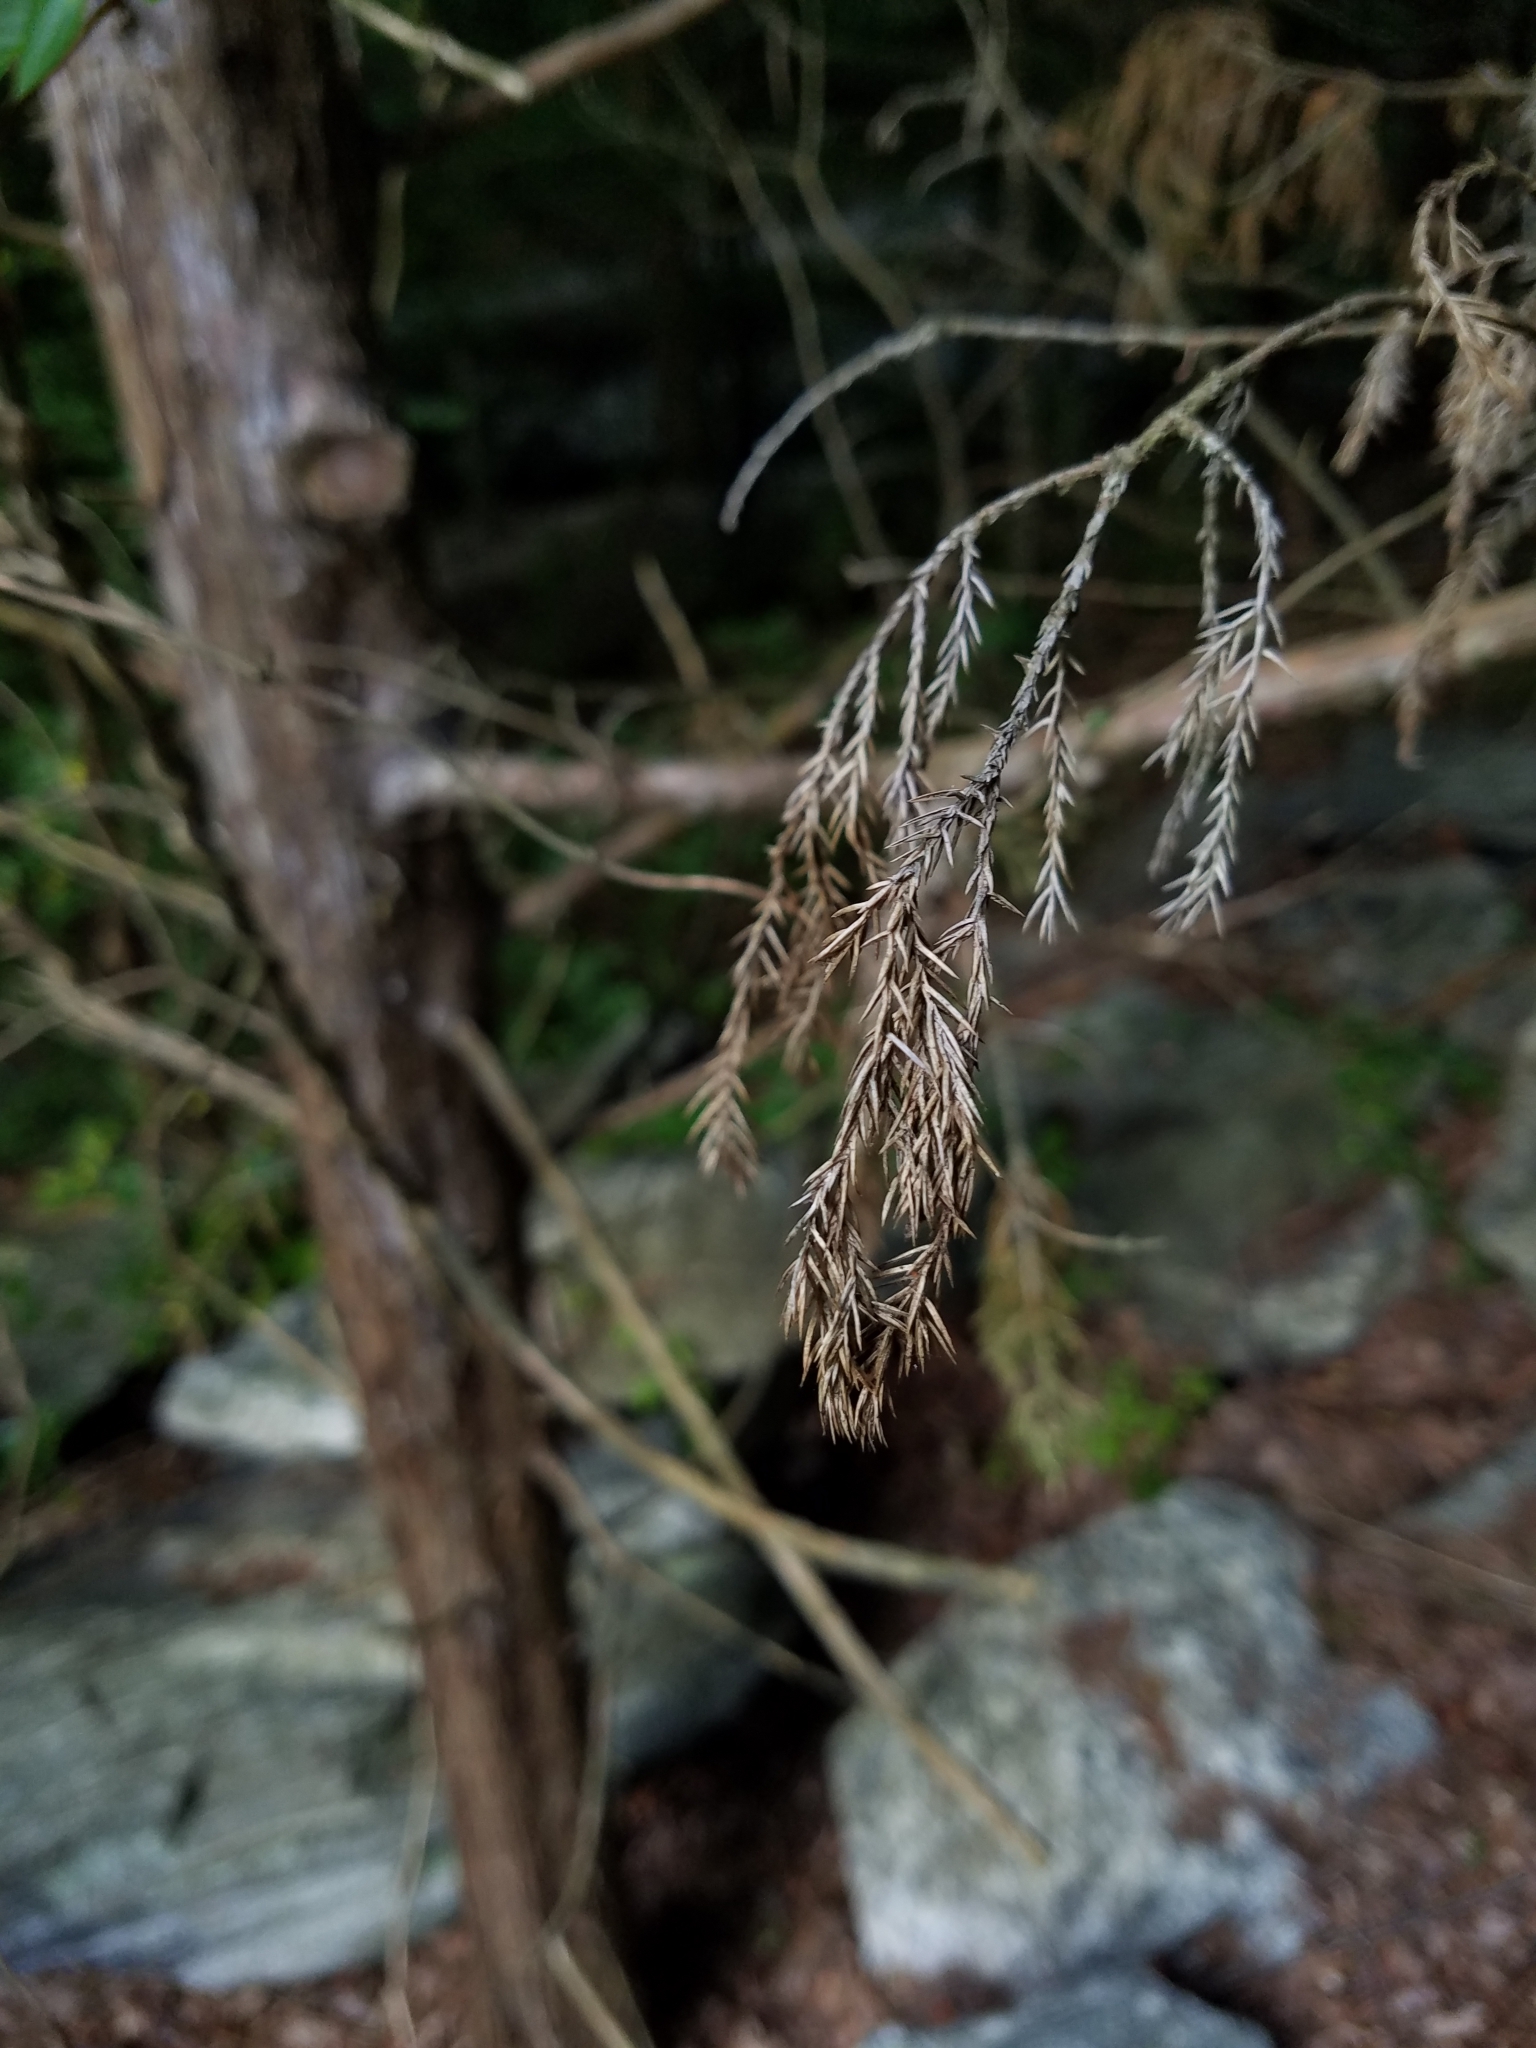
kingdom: Plantae
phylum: Tracheophyta
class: Pinopsida
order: Pinales
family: Cupressaceae
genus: Juniperus
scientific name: Juniperus virginiana
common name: Red juniper
